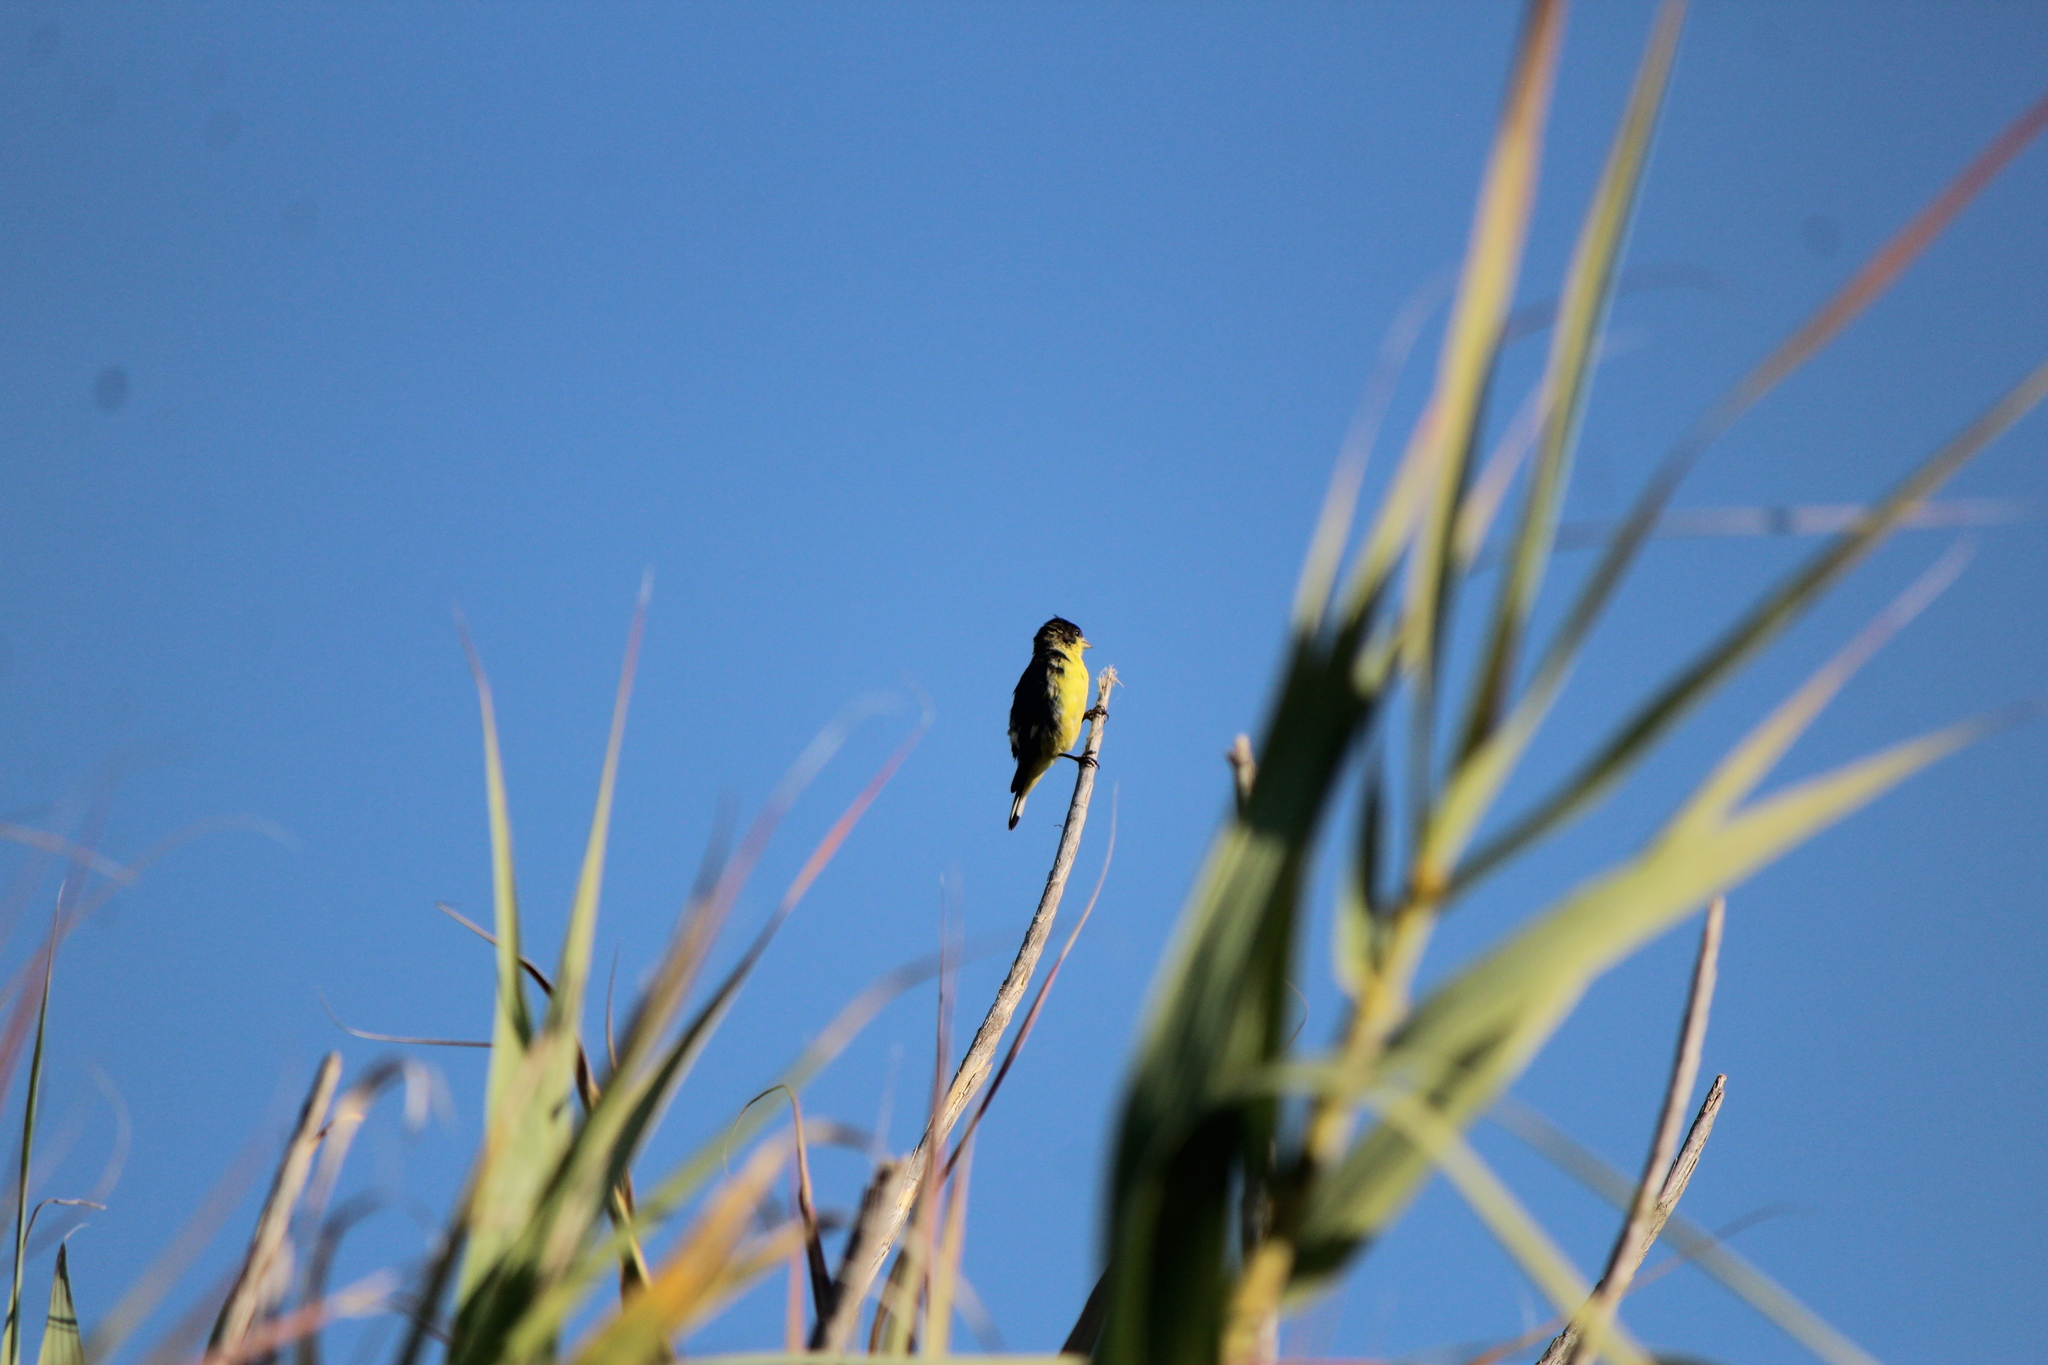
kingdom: Animalia
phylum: Chordata
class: Aves
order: Passeriformes
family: Fringillidae
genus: Spinus
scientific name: Spinus psaltria
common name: Lesser goldfinch
